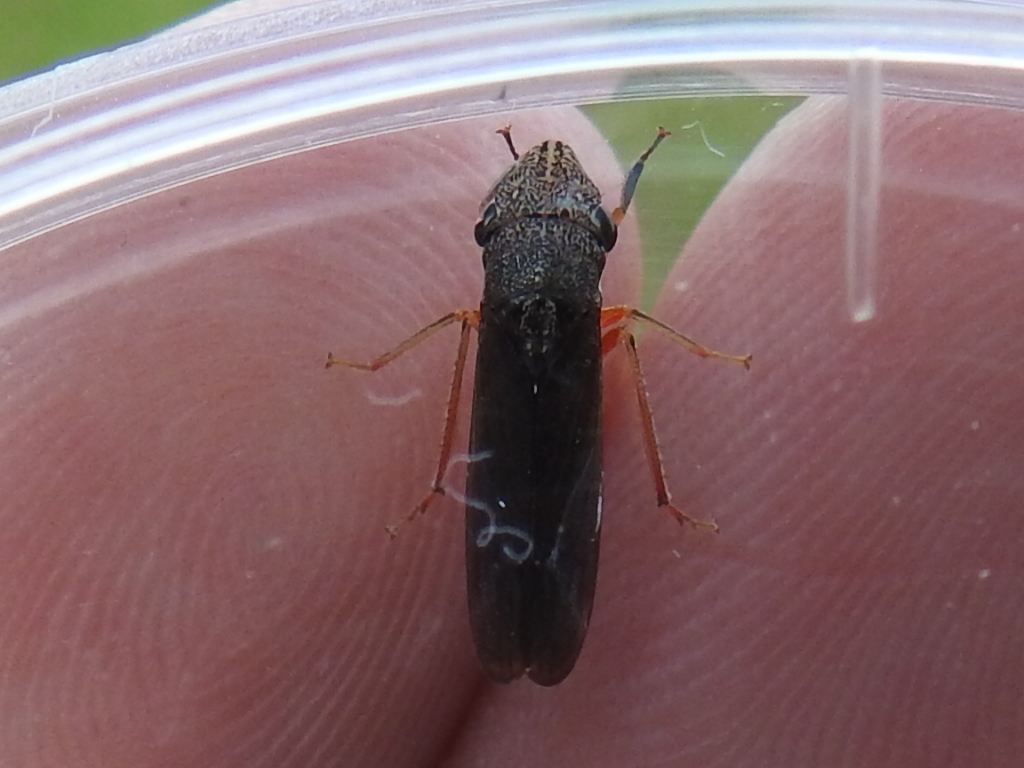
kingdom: Animalia
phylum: Arthropoda
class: Insecta
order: Hemiptera
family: Cicadellidae
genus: Homalodisca
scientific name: Homalodisca insolita
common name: Johnson grass sharpshooter
